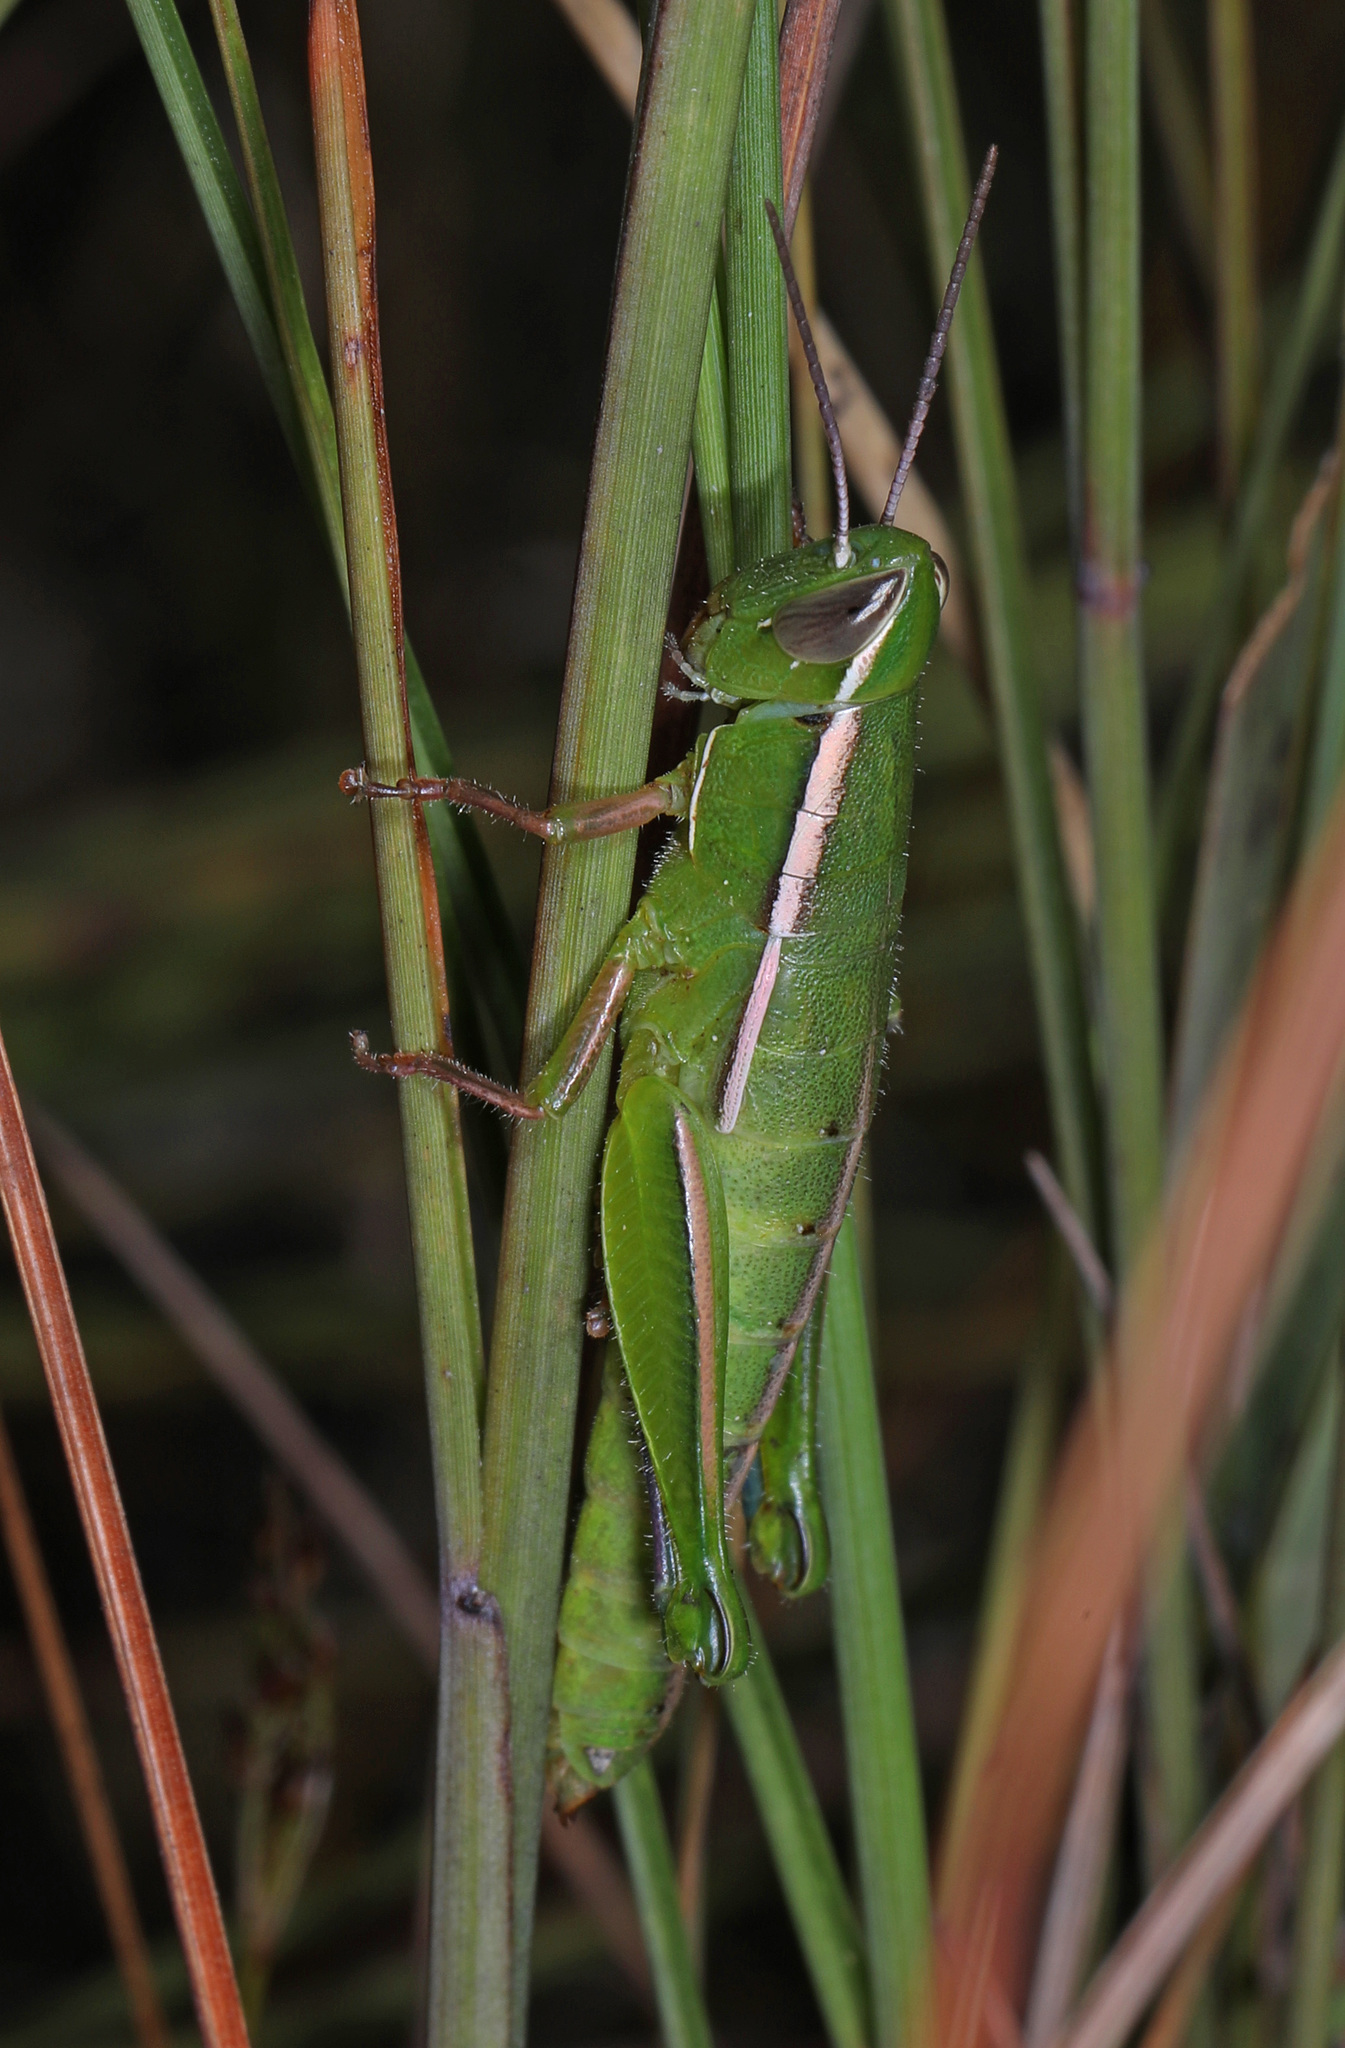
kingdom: Animalia
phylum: Arthropoda
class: Insecta
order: Orthoptera
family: Acrididae
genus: Aptenopedes
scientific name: Aptenopedes sphenarioides
